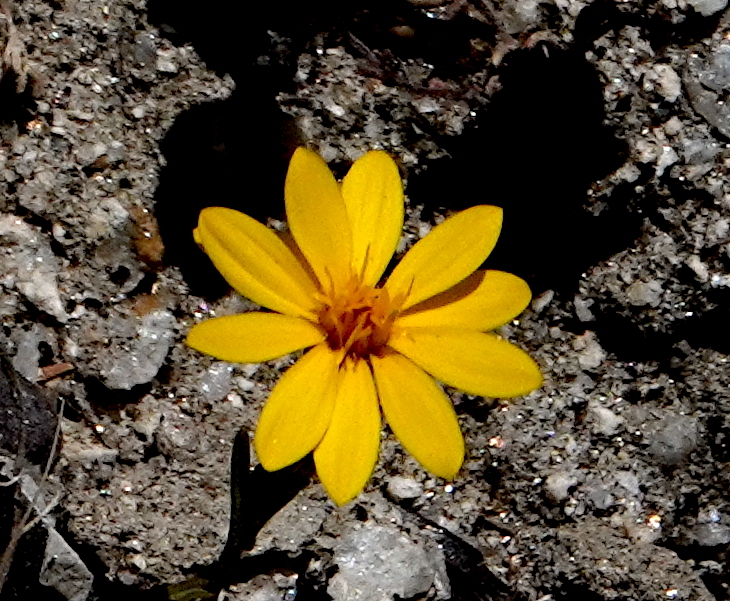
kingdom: Plantae
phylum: Tracheophyta
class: Magnoliopsida
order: Asterales
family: Asteraceae
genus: Pentachaeta
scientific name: Pentachaeta aurea
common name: Golden-ray pentachaeta
